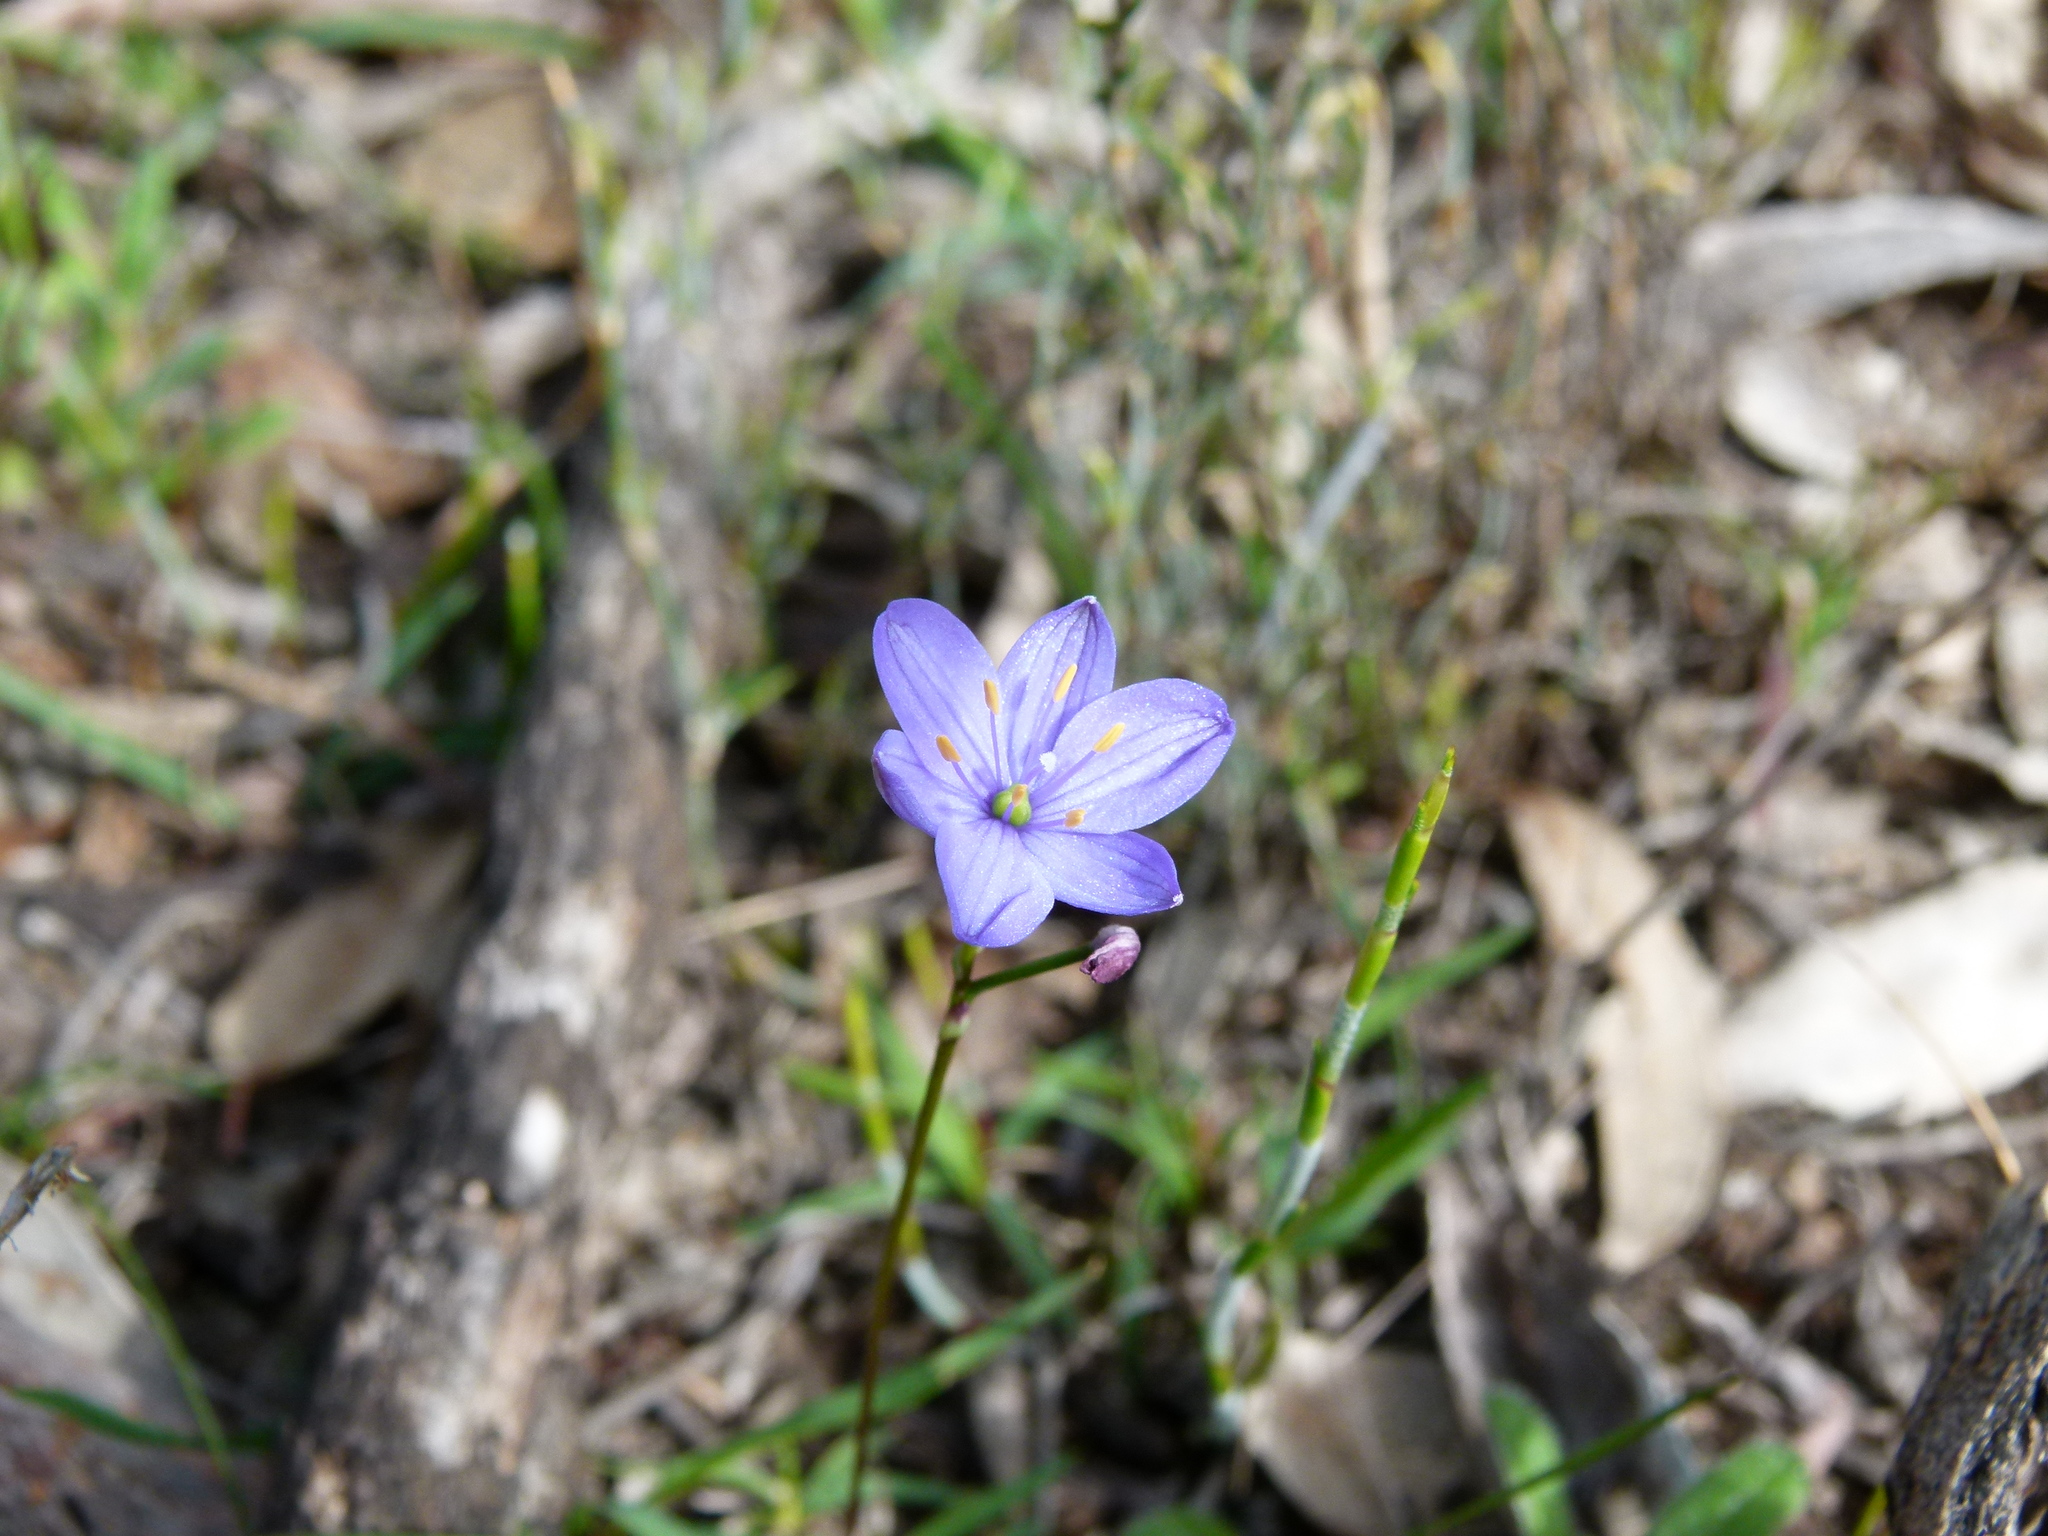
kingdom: Plantae
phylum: Tracheophyta
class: Liliopsida
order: Asparagales
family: Asphodelaceae
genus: Chamaescilla
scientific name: Chamaescilla corymbosa
